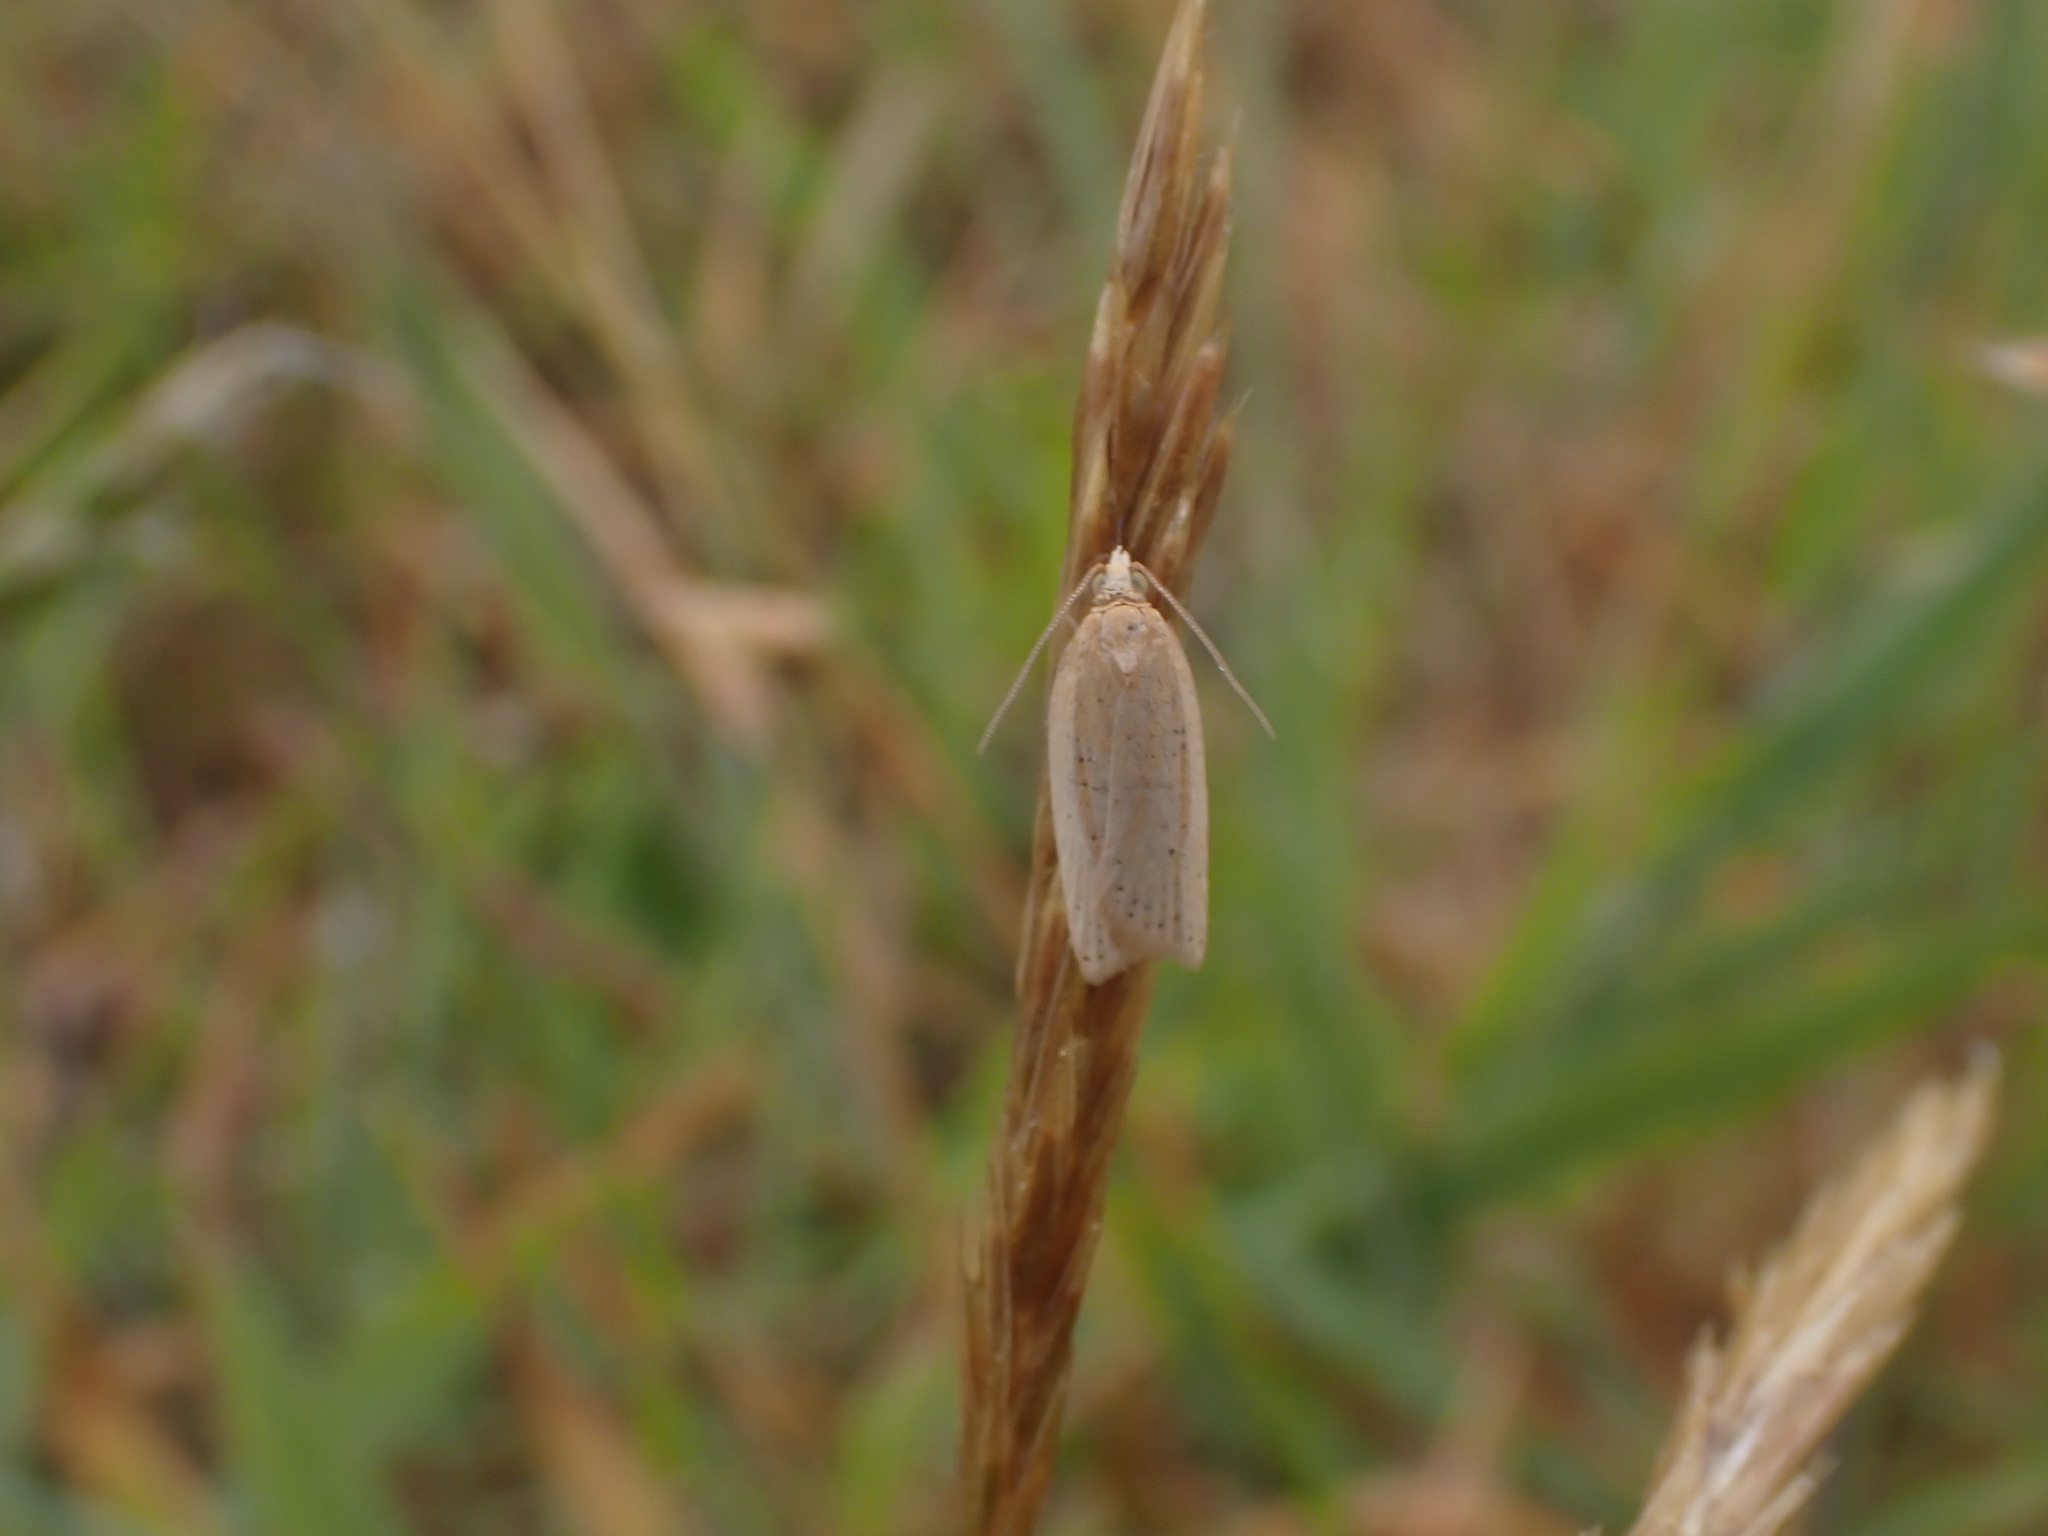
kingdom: Animalia
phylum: Arthropoda
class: Insecta
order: Lepidoptera
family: Tortricidae
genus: Clepsis
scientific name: Clepsis
